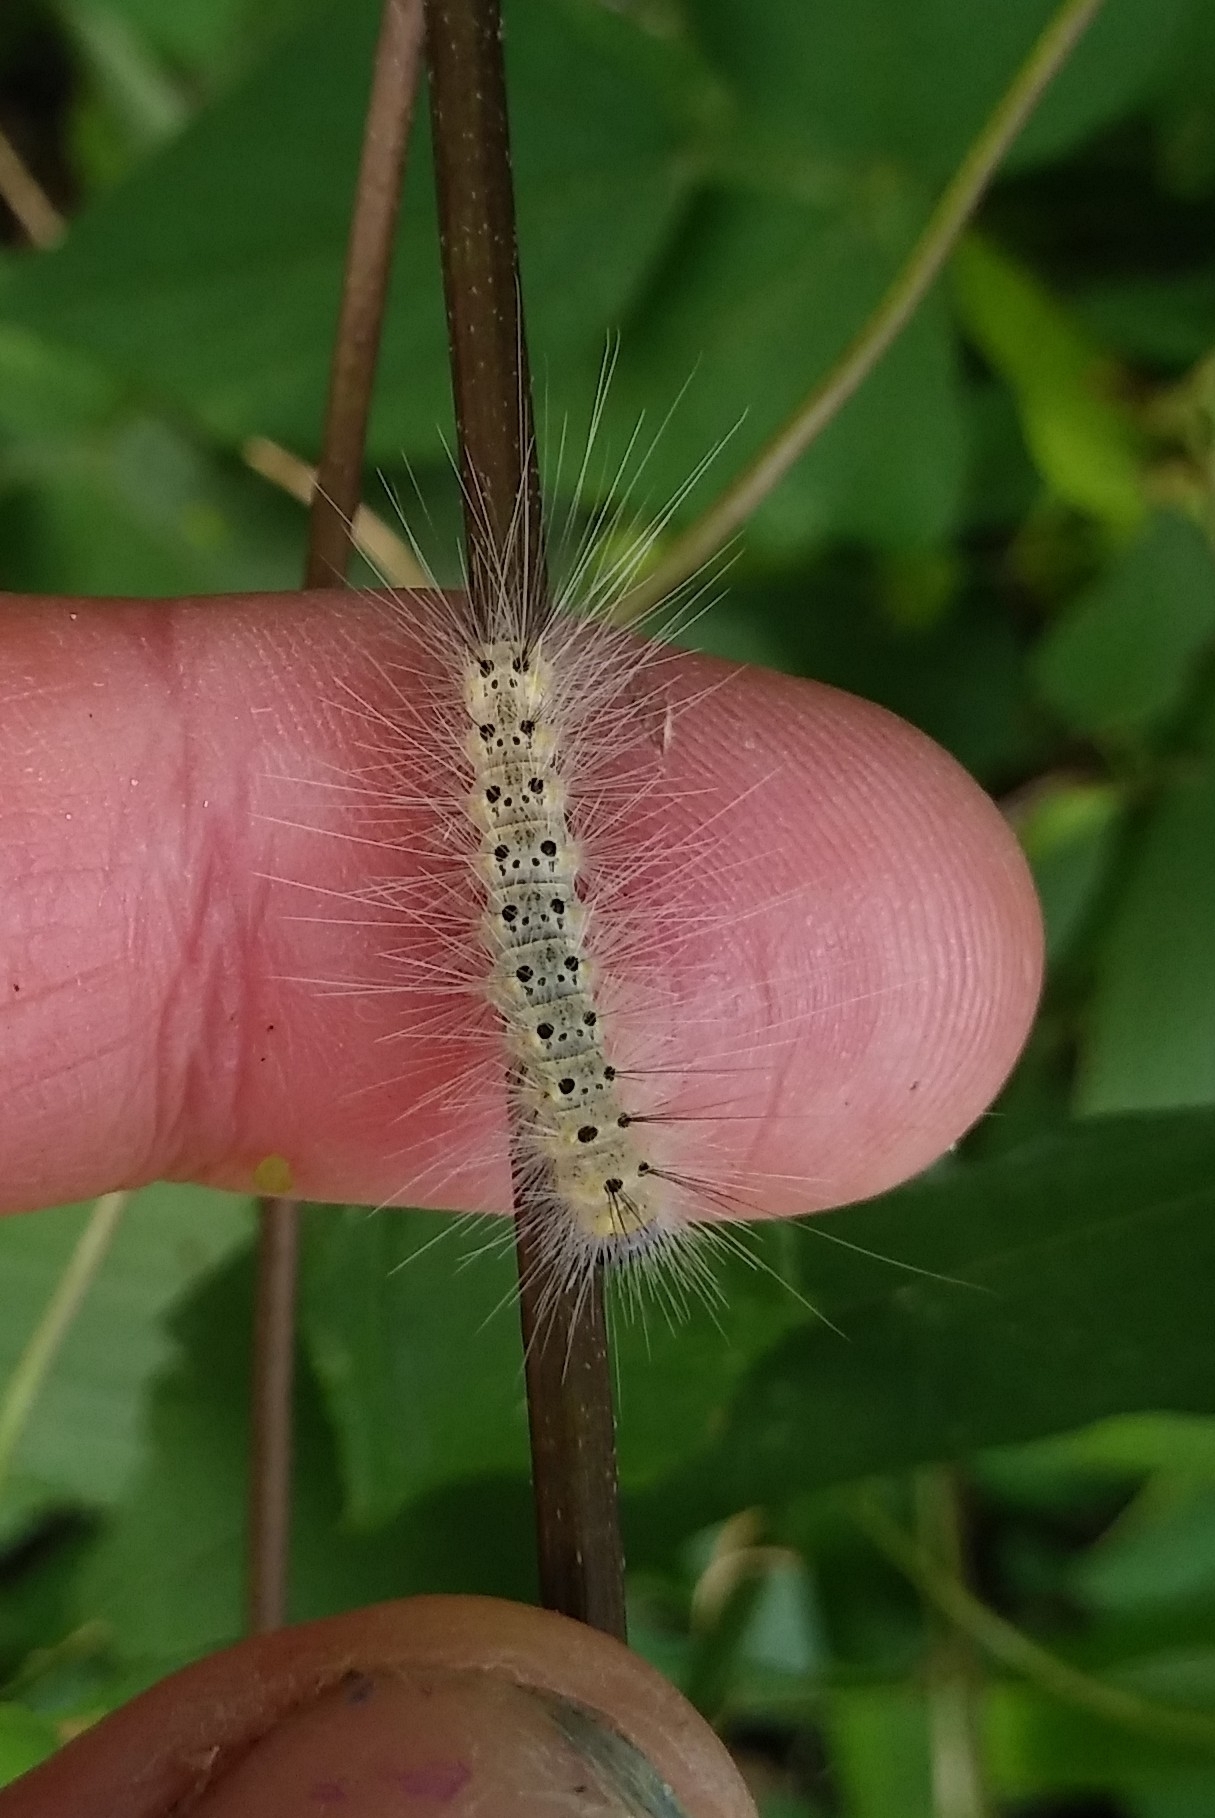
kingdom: Animalia
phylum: Arthropoda
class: Insecta
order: Lepidoptera
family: Erebidae
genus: Hyphantria
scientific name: Hyphantria cunea
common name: American white moth
